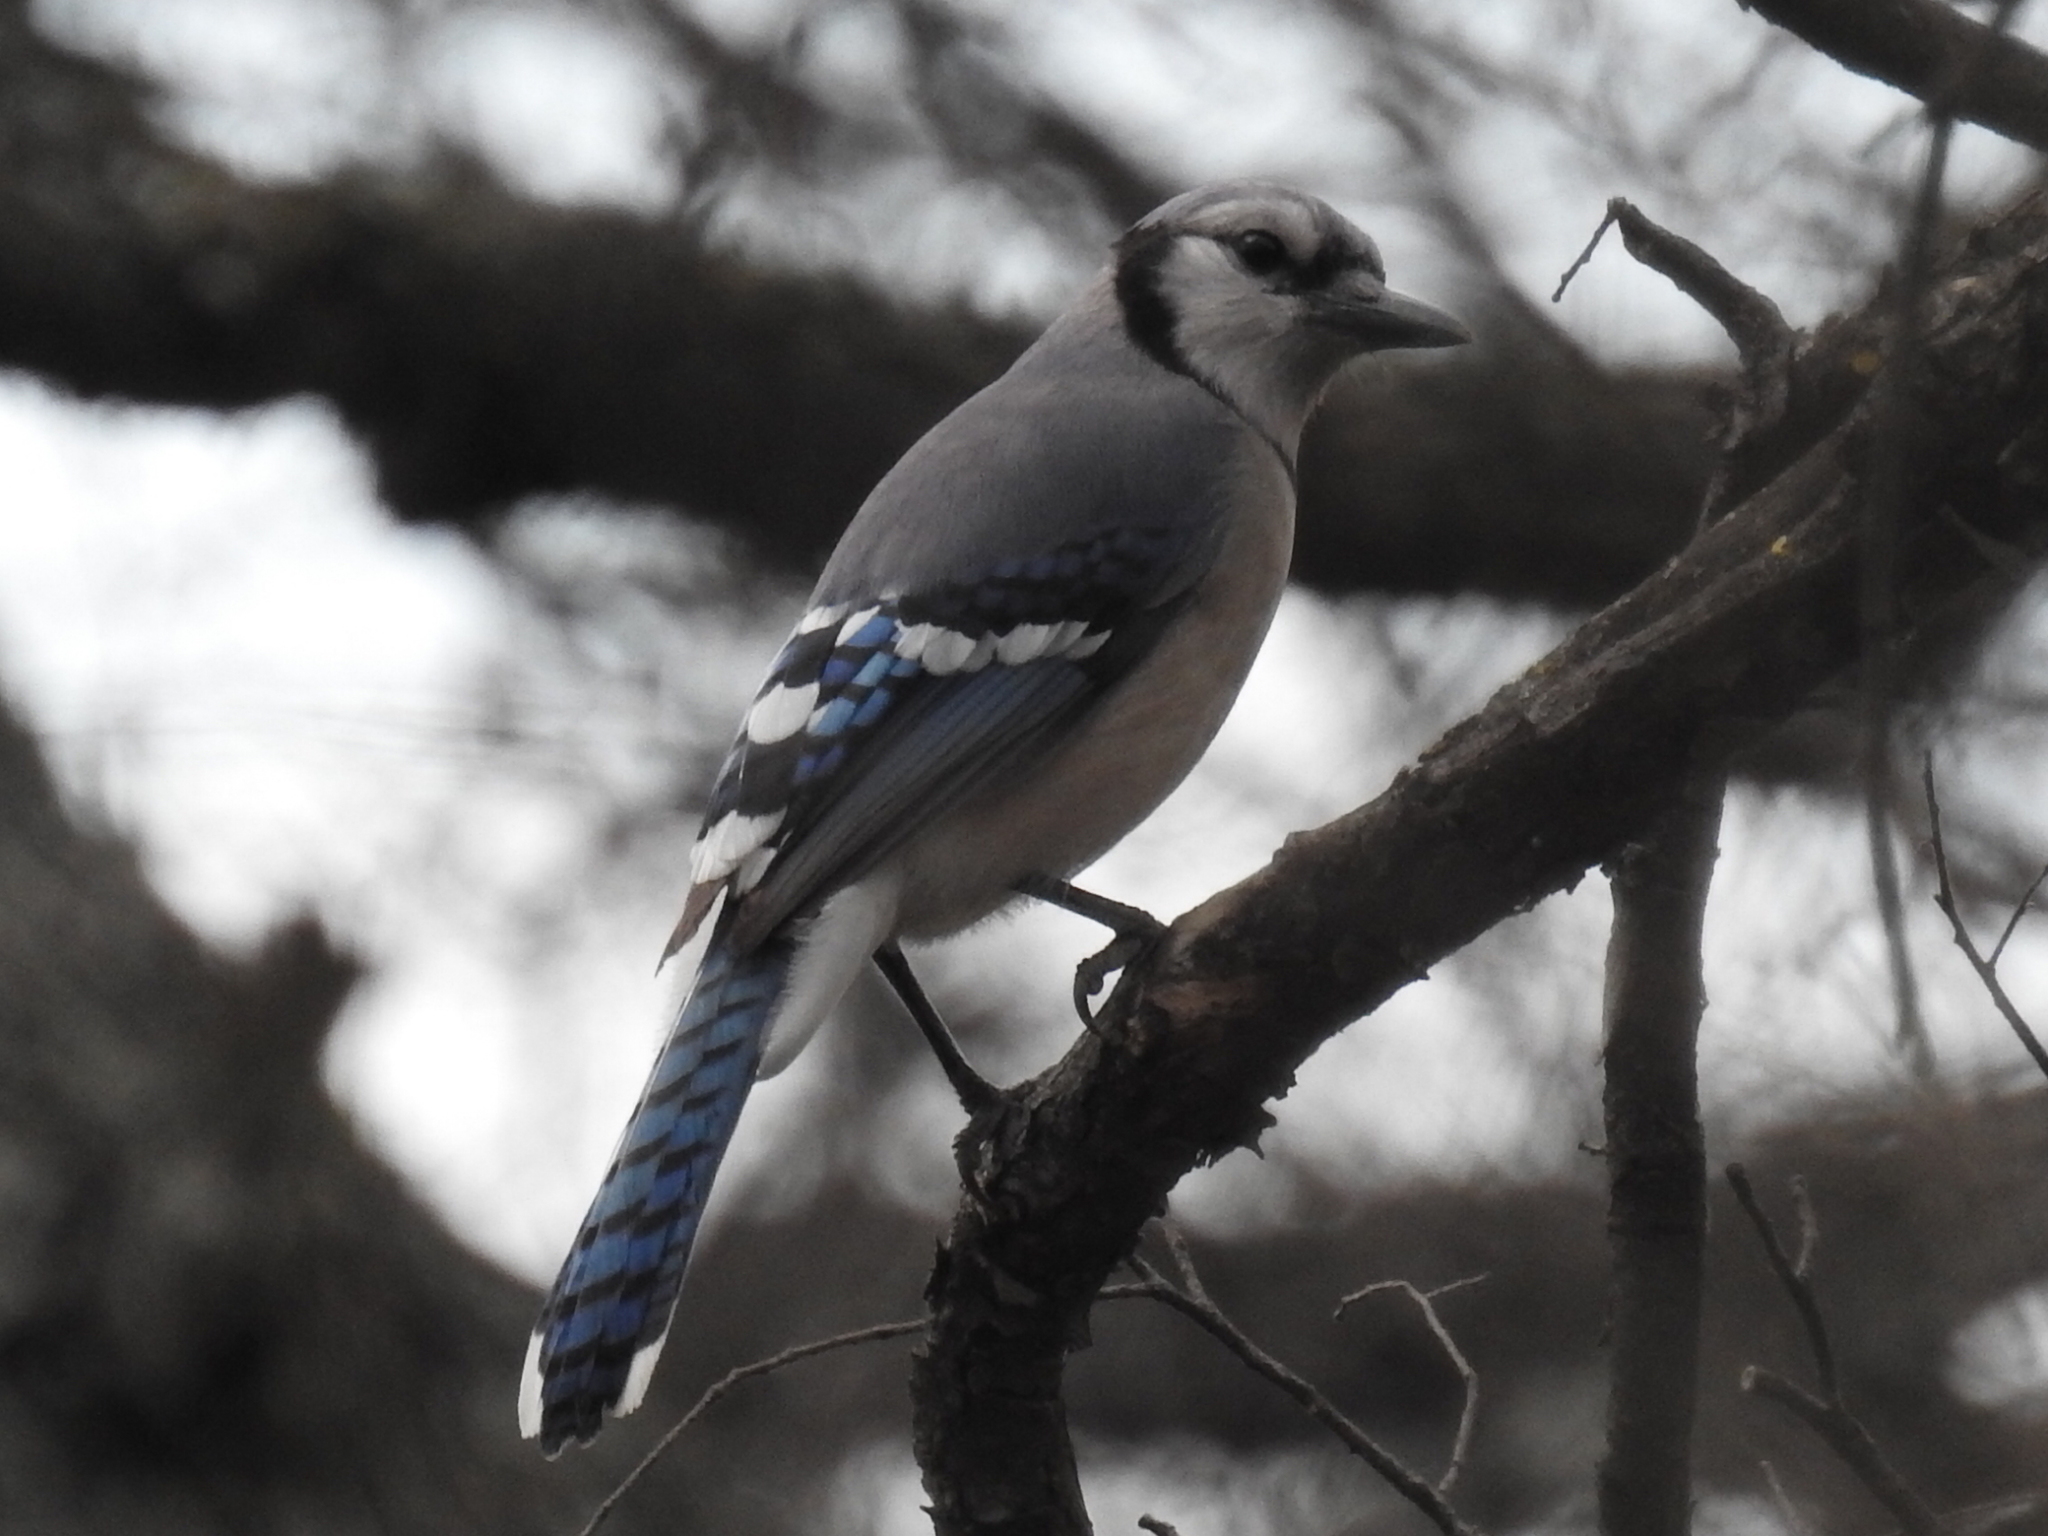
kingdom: Animalia
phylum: Chordata
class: Aves
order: Passeriformes
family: Corvidae
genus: Cyanocitta
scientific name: Cyanocitta cristata
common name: Blue jay
